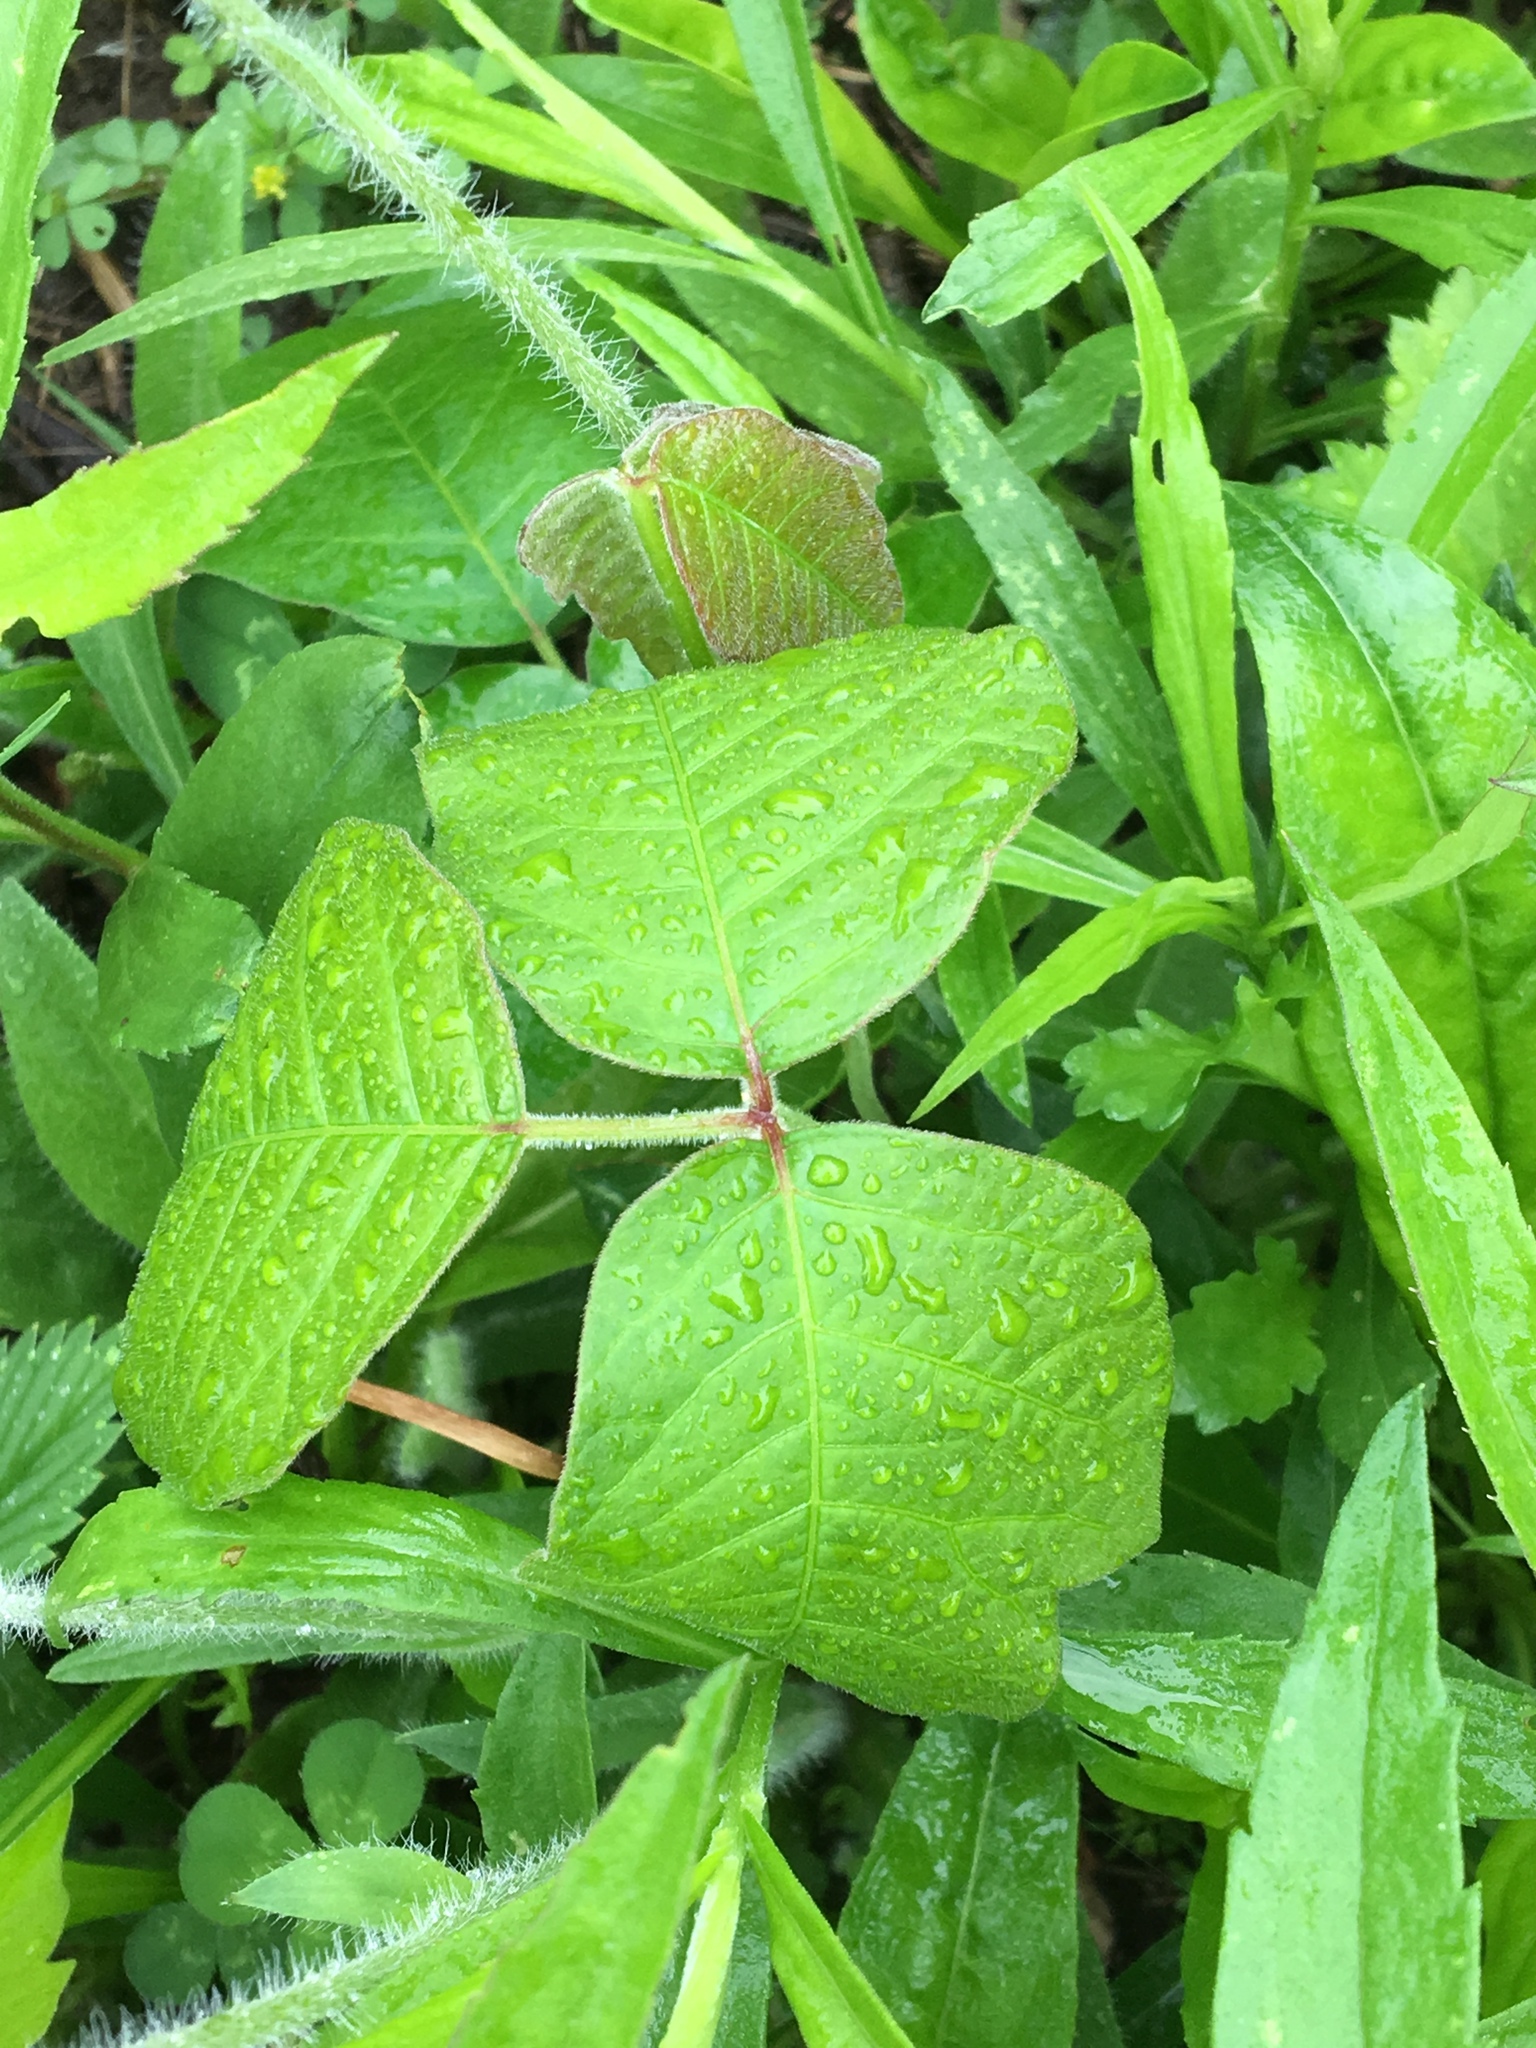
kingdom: Plantae
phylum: Tracheophyta
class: Magnoliopsida
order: Sapindales
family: Anacardiaceae
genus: Toxicodendron
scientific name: Toxicodendron radicans
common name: Poison ivy
